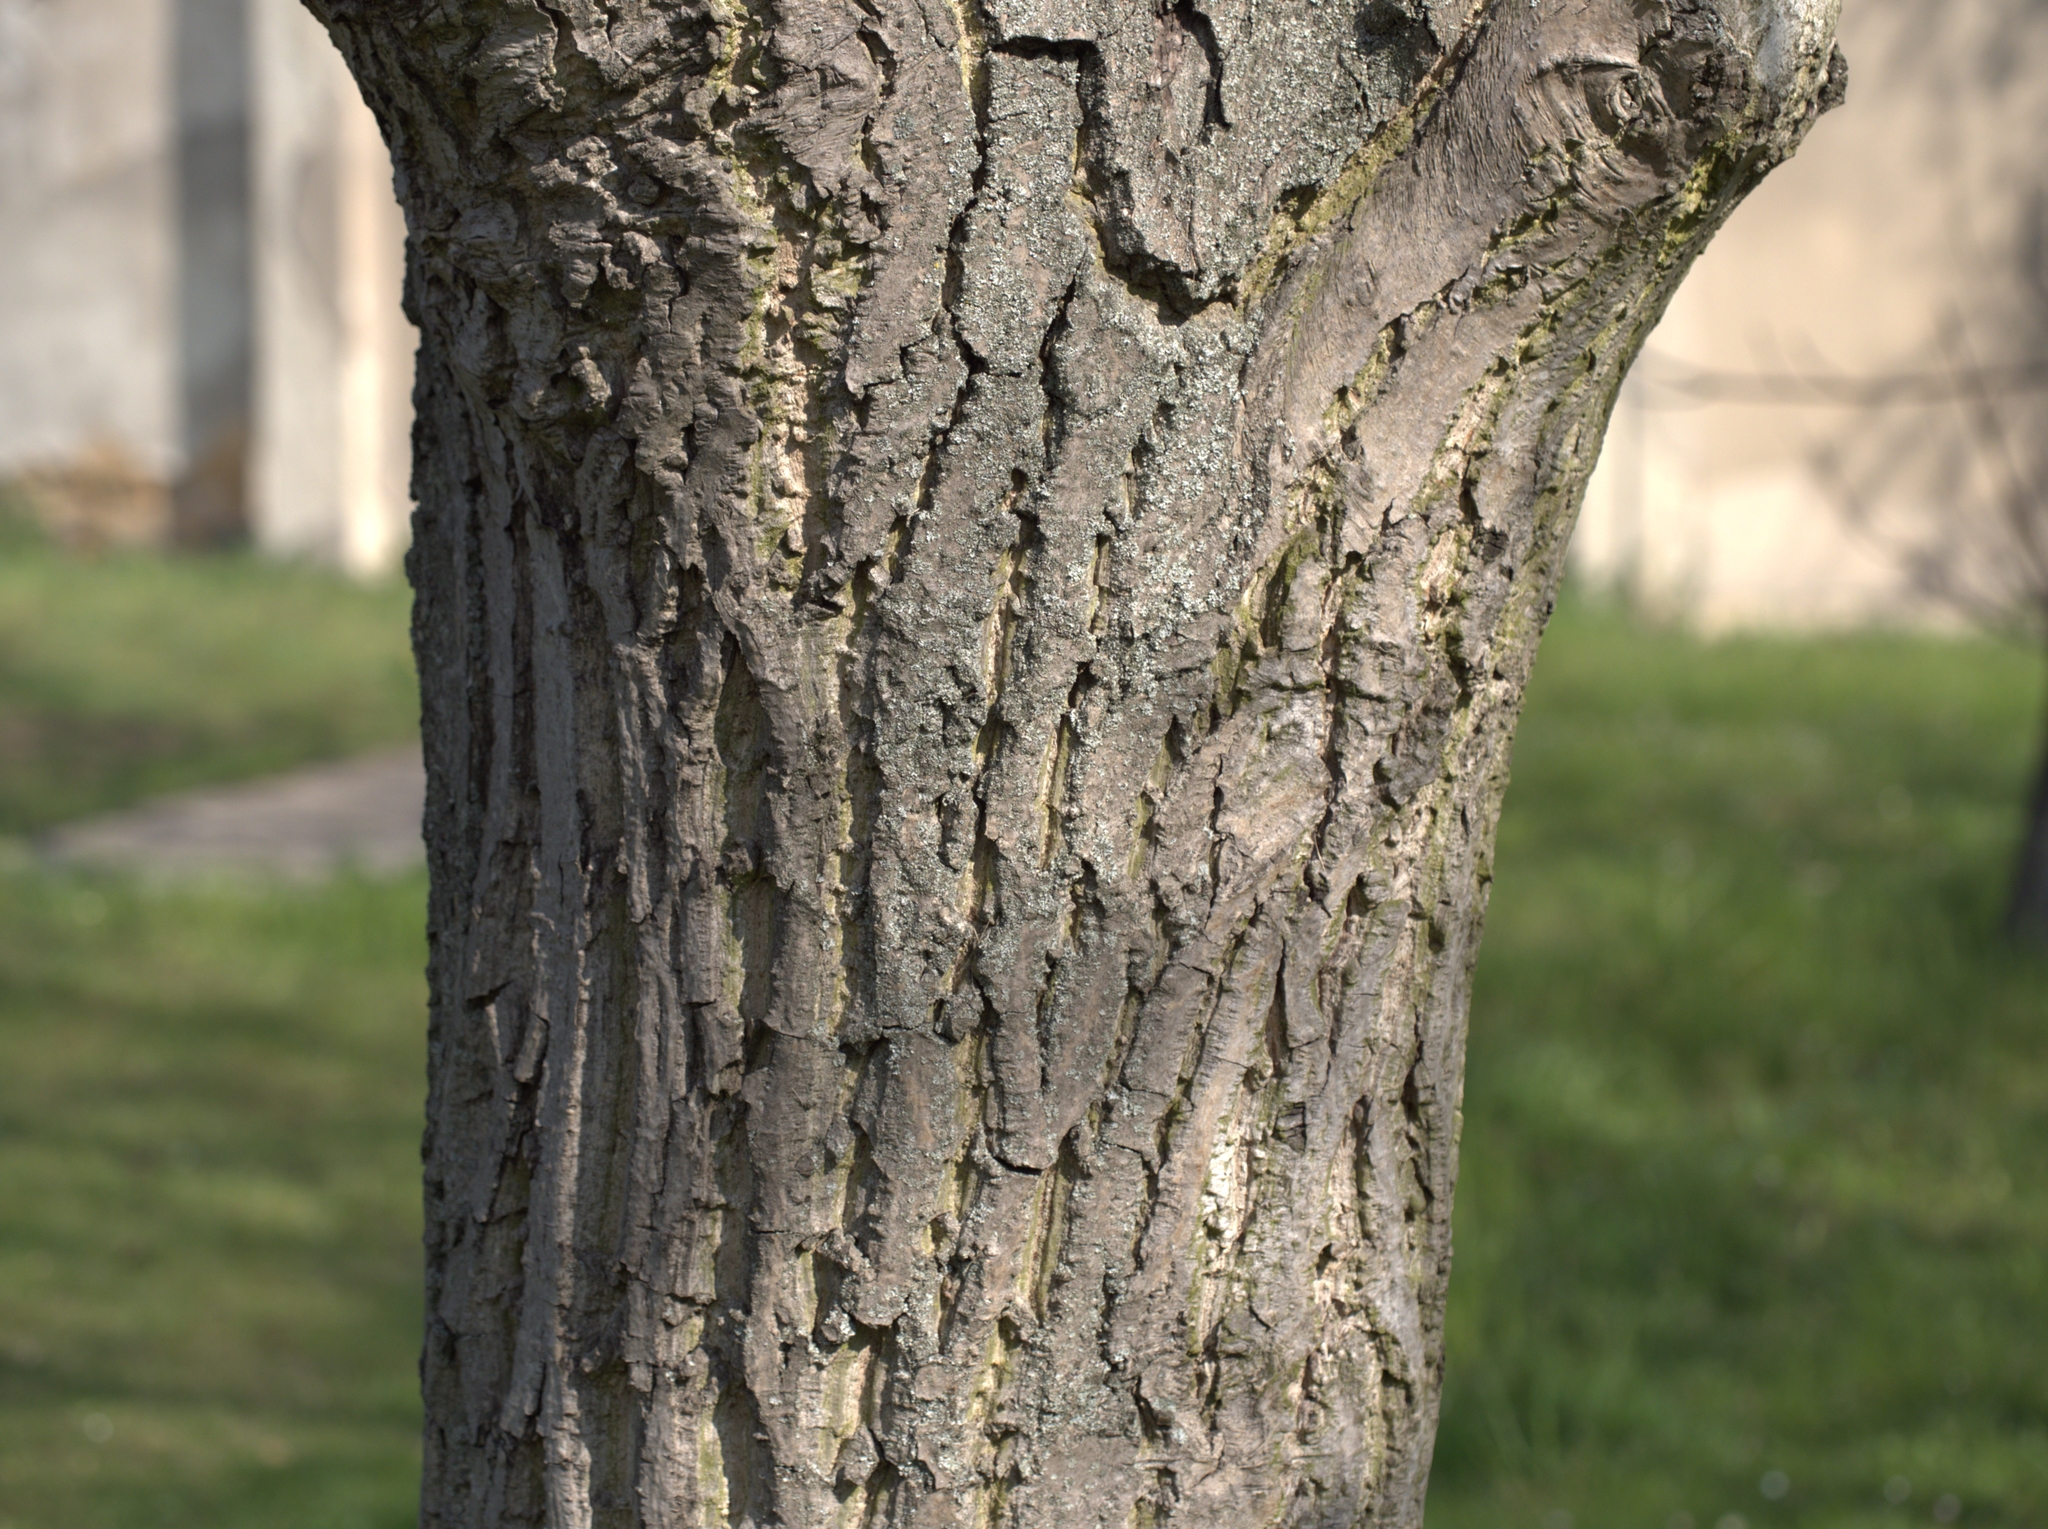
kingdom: Plantae
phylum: Tracheophyta
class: Magnoliopsida
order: Fagales
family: Juglandaceae
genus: Juglans
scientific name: Juglans regia
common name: Walnut
